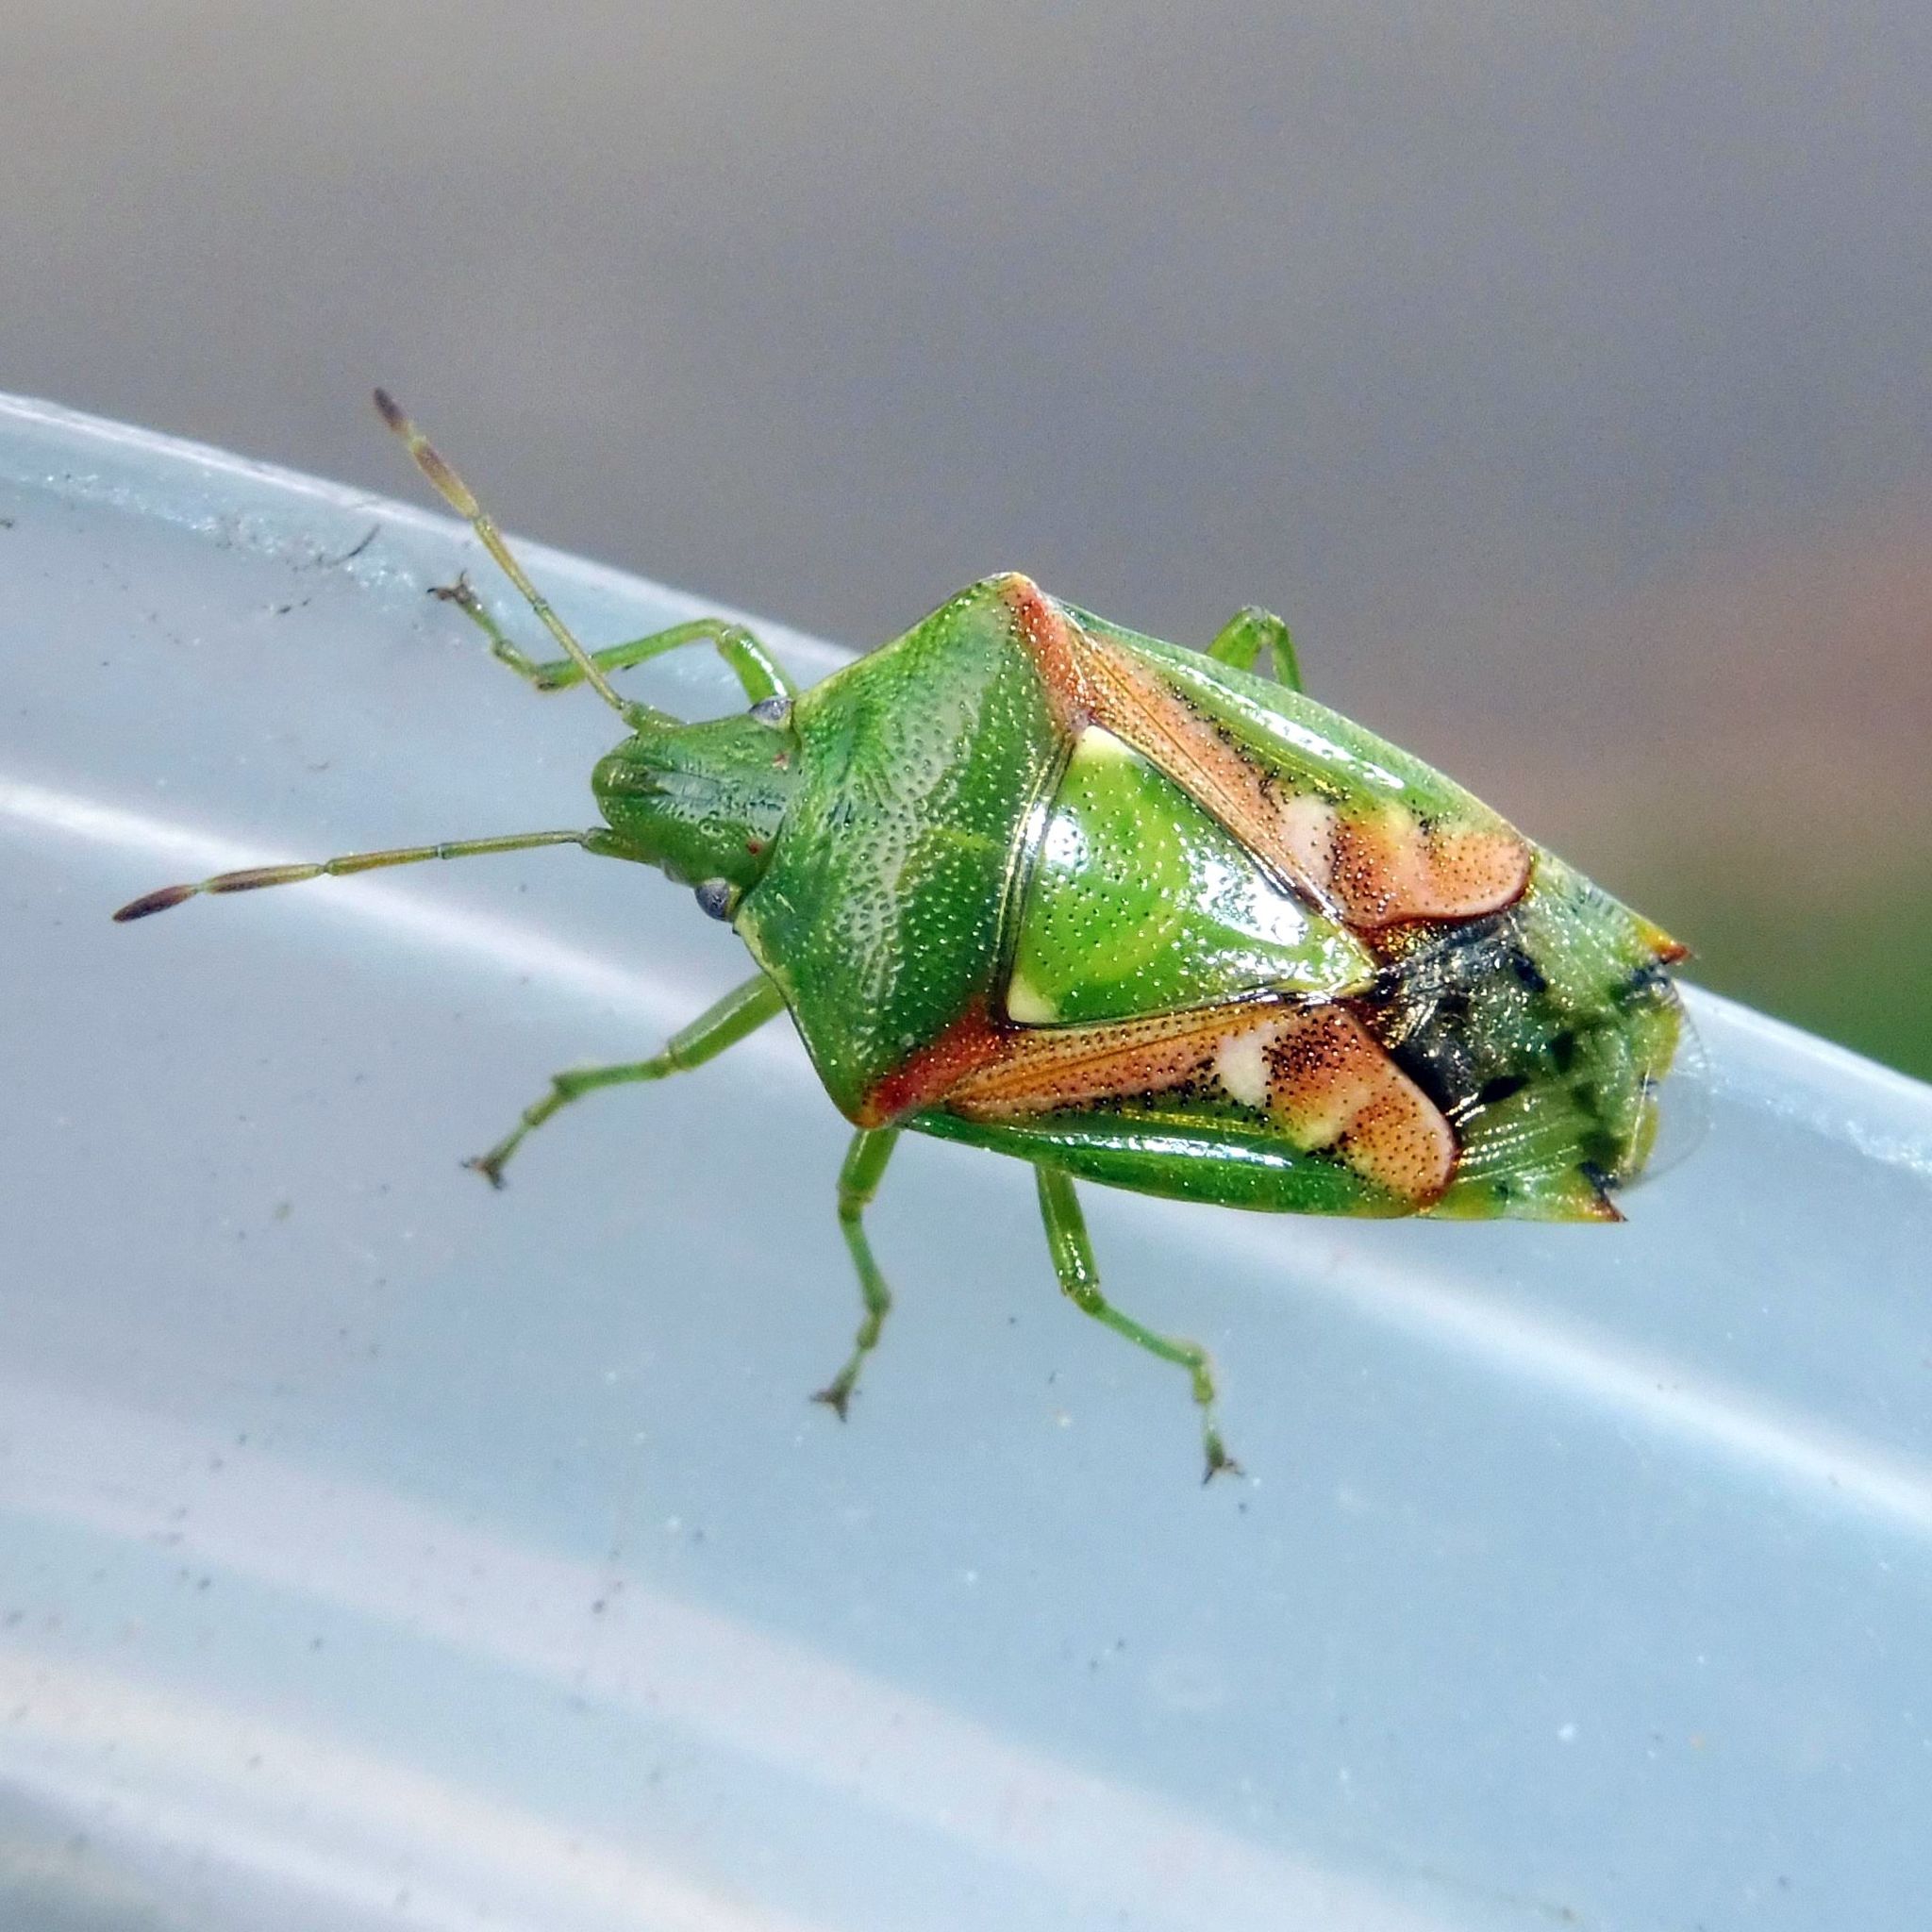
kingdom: Animalia
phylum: Arthropoda
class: Insecta
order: Hemiptera
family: Acanthosomatidae
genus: Cyphostethus
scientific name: Cyphostethus tristriatus
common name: Juniper shieldbug
